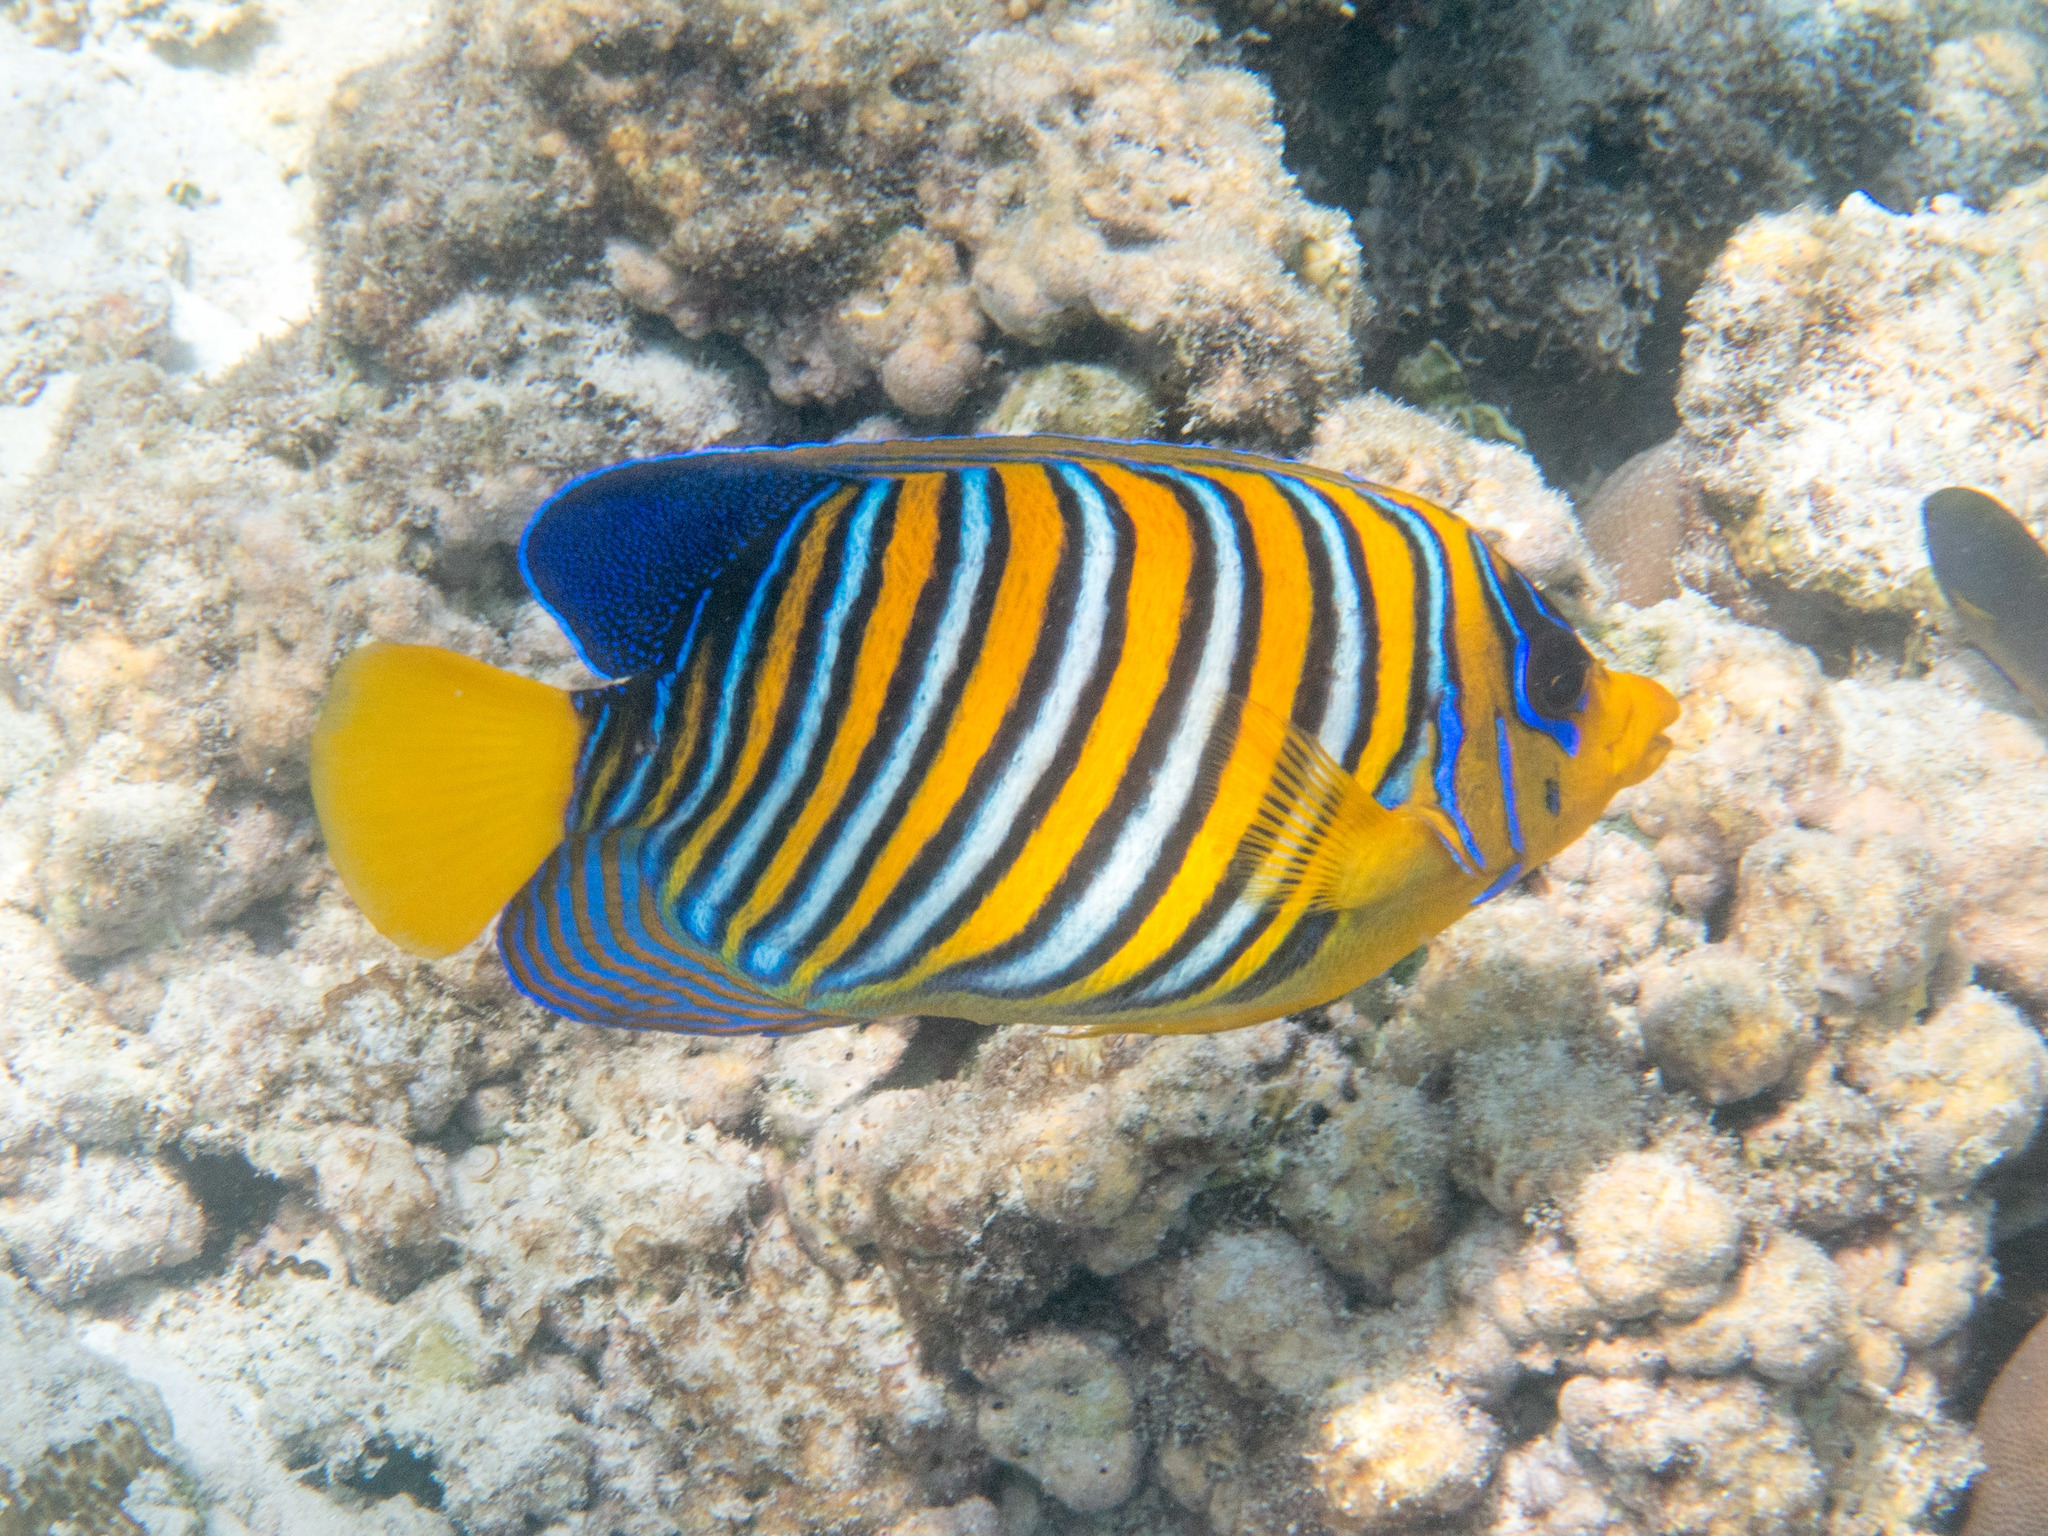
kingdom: Animalia
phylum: Chordata
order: Perciformes
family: Pomacanthidae
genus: Pygoplites
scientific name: Pygoplites diacanthus
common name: Regal angelfish
